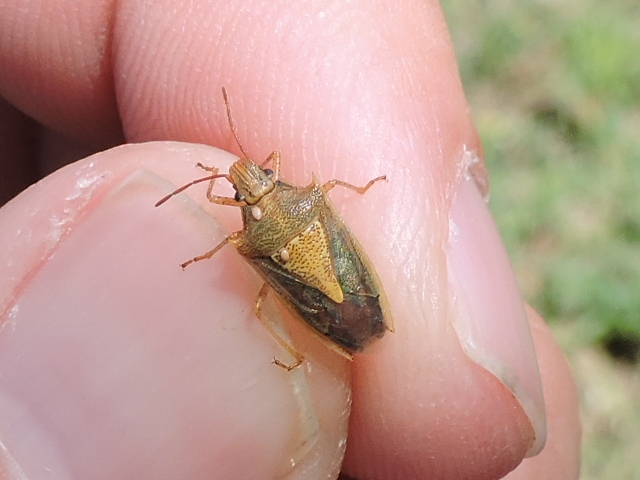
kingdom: Animalia
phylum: Arthropoda
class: Insecta
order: Hemiptera
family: Pentatomidae
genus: Oebalus
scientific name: Oebalus pugnax
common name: Rice stink bug
